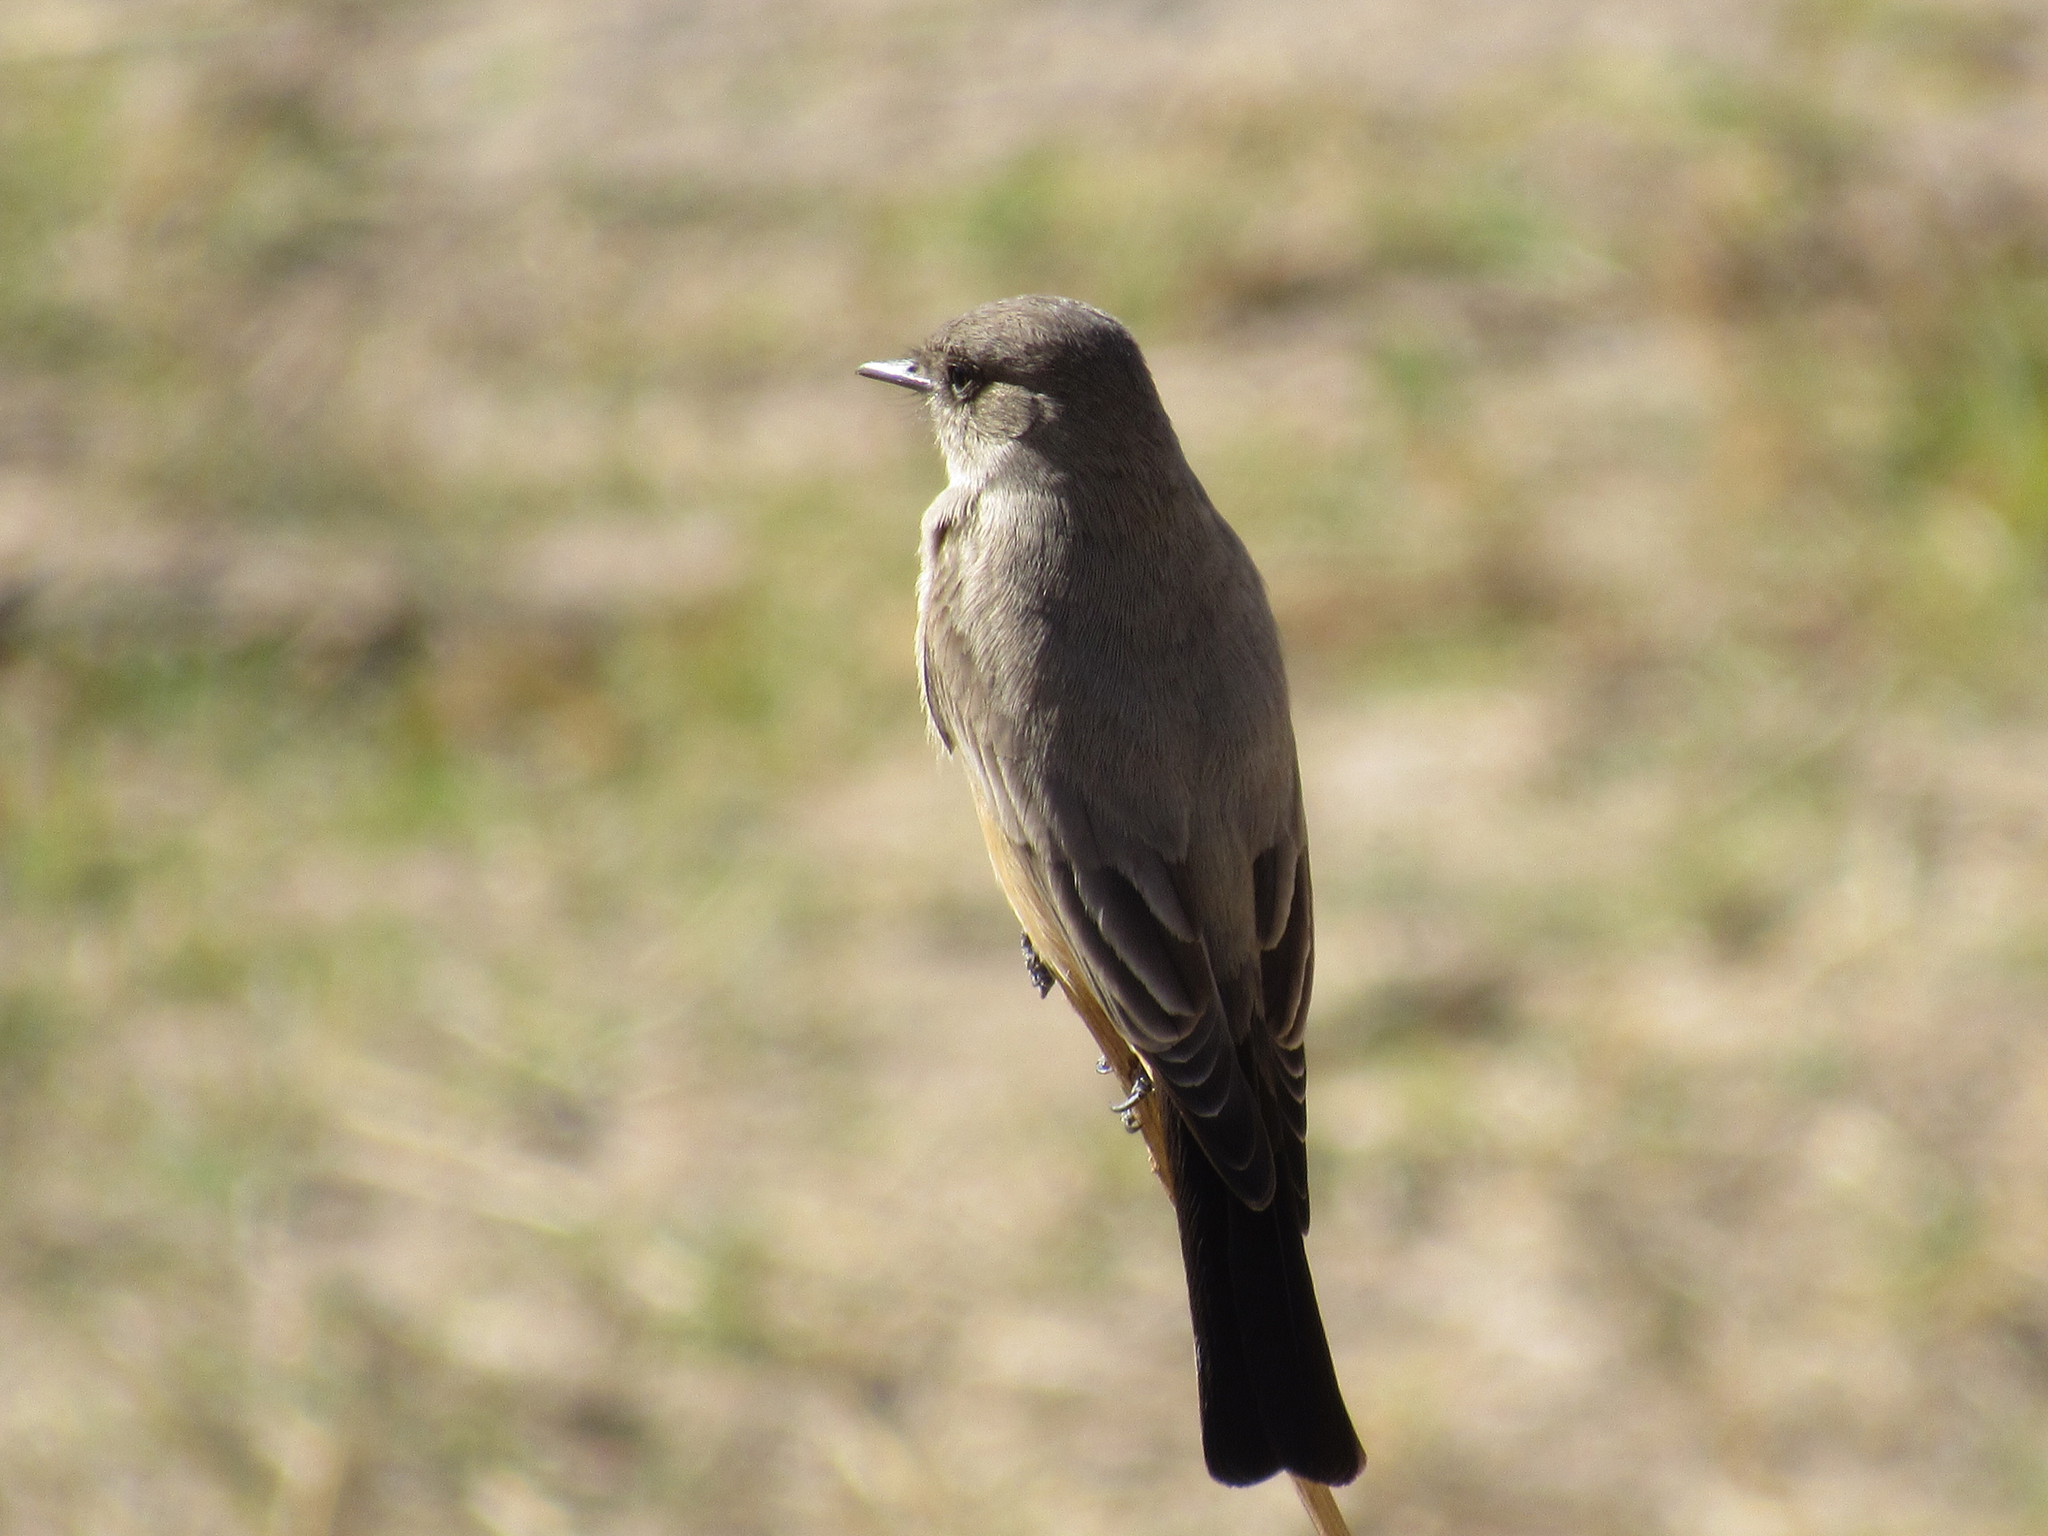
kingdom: Animalia
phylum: Chordata
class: Aves
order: Passeriformes
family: Tyrannidae
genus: Sayornis
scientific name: Sayornis saya
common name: Say's phoebe
